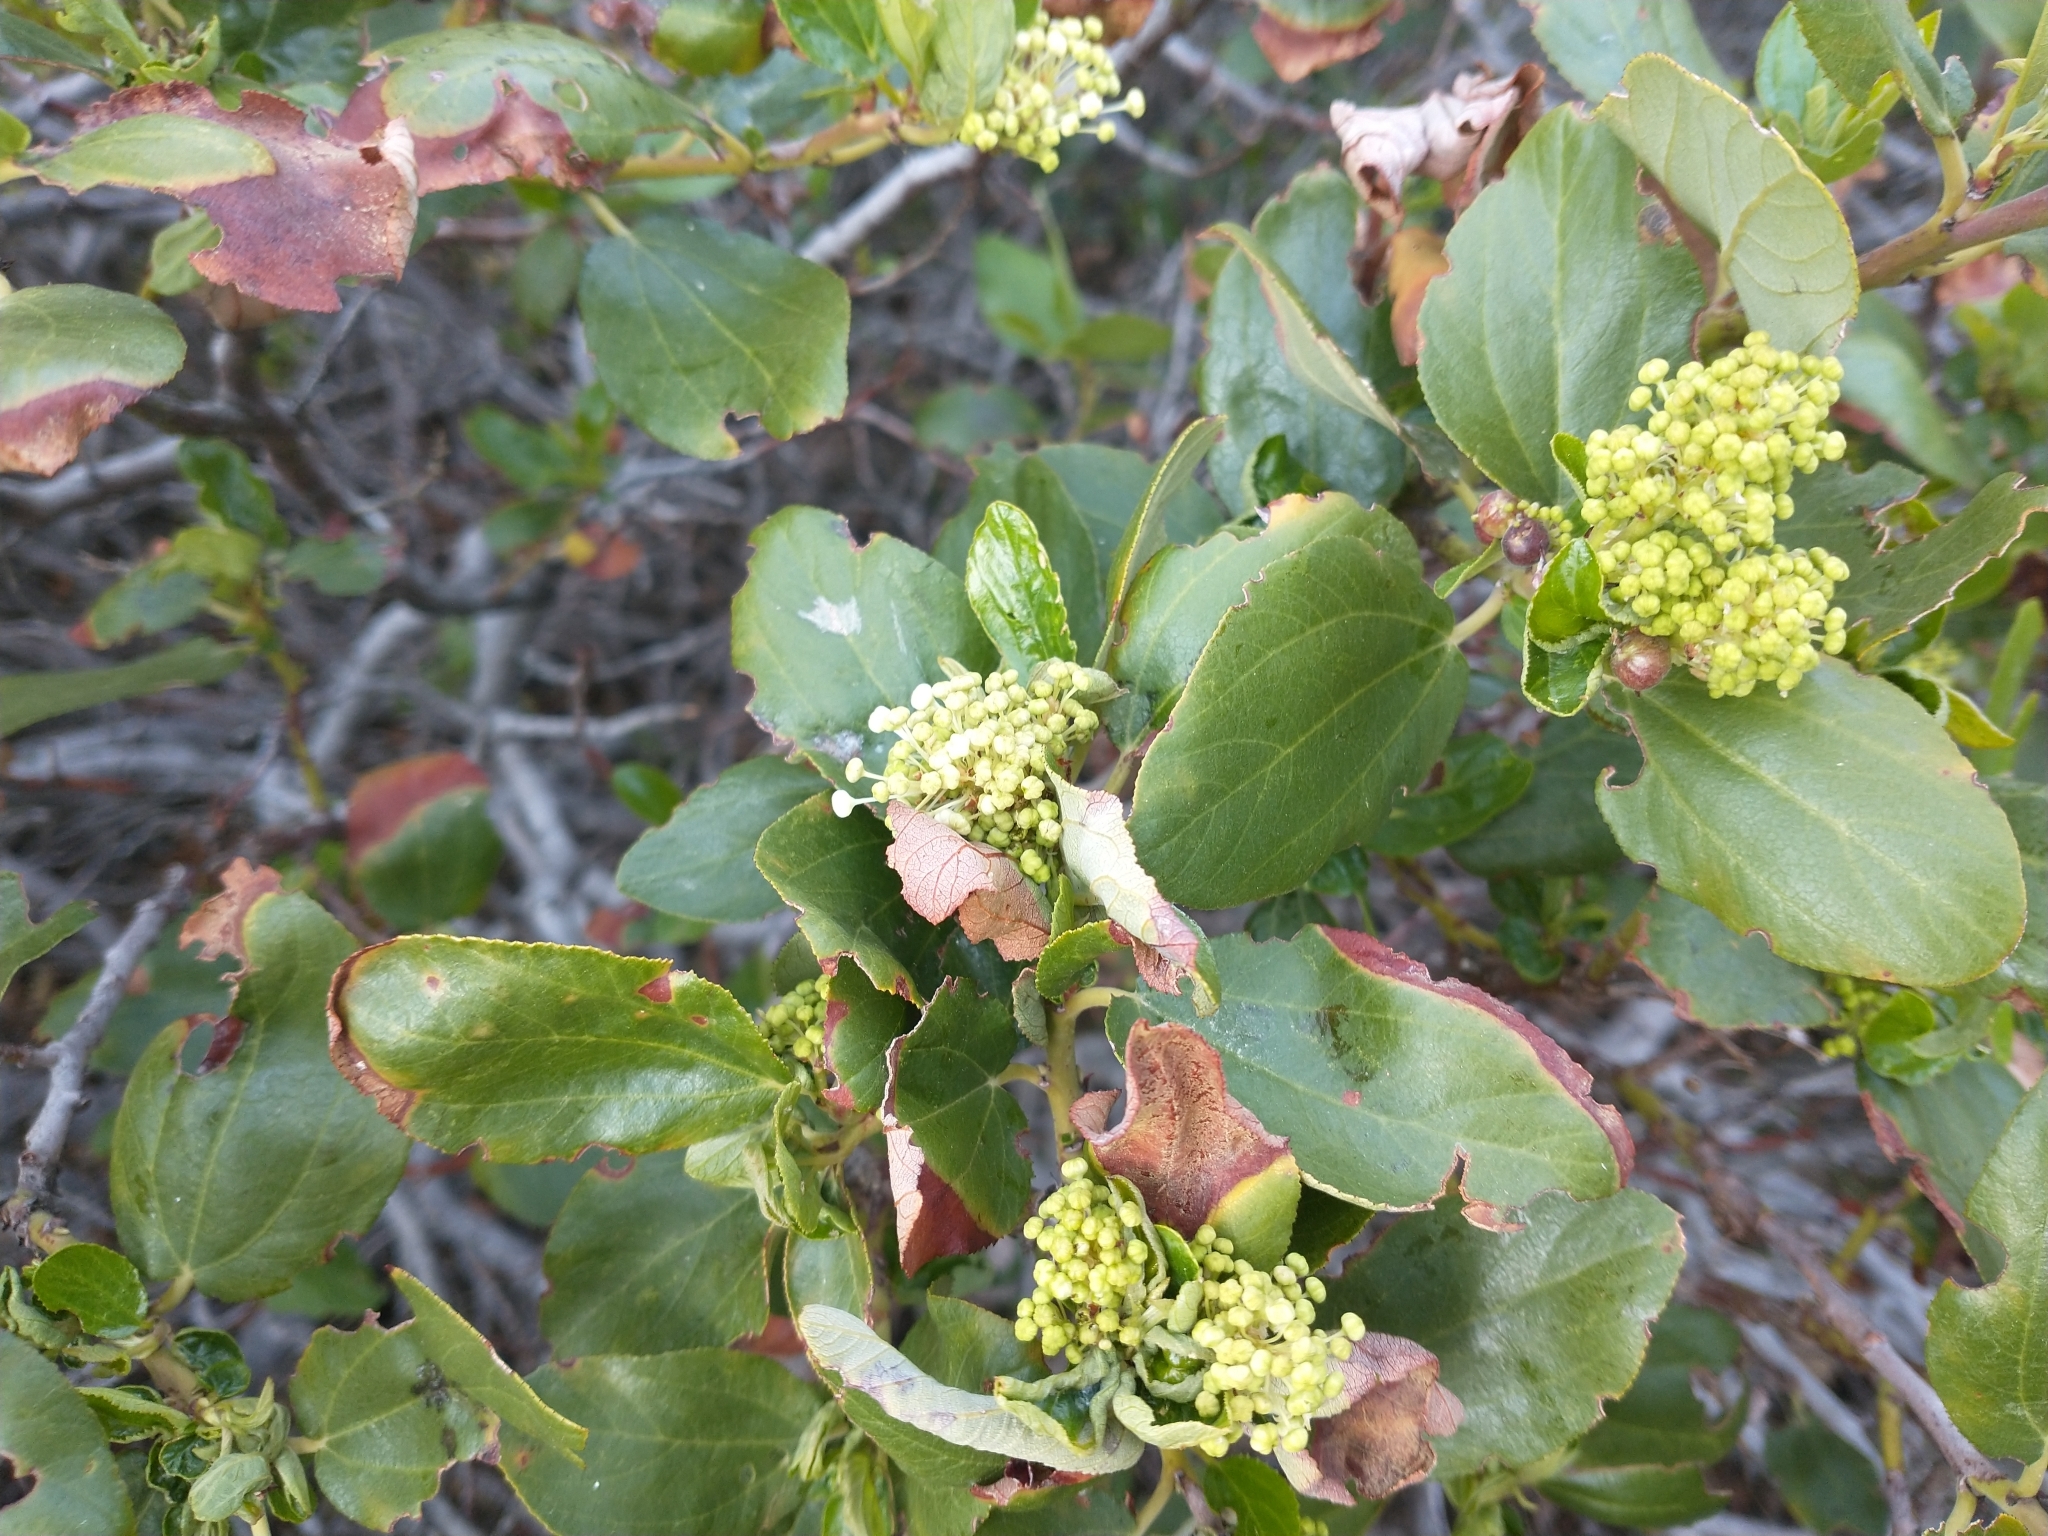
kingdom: Plantae
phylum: Tracheophyta
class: Magnoliopsida
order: Rosales
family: Rhamnaceae
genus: Ceanothus
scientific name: Ceanothus velutinus
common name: Snowbrush
